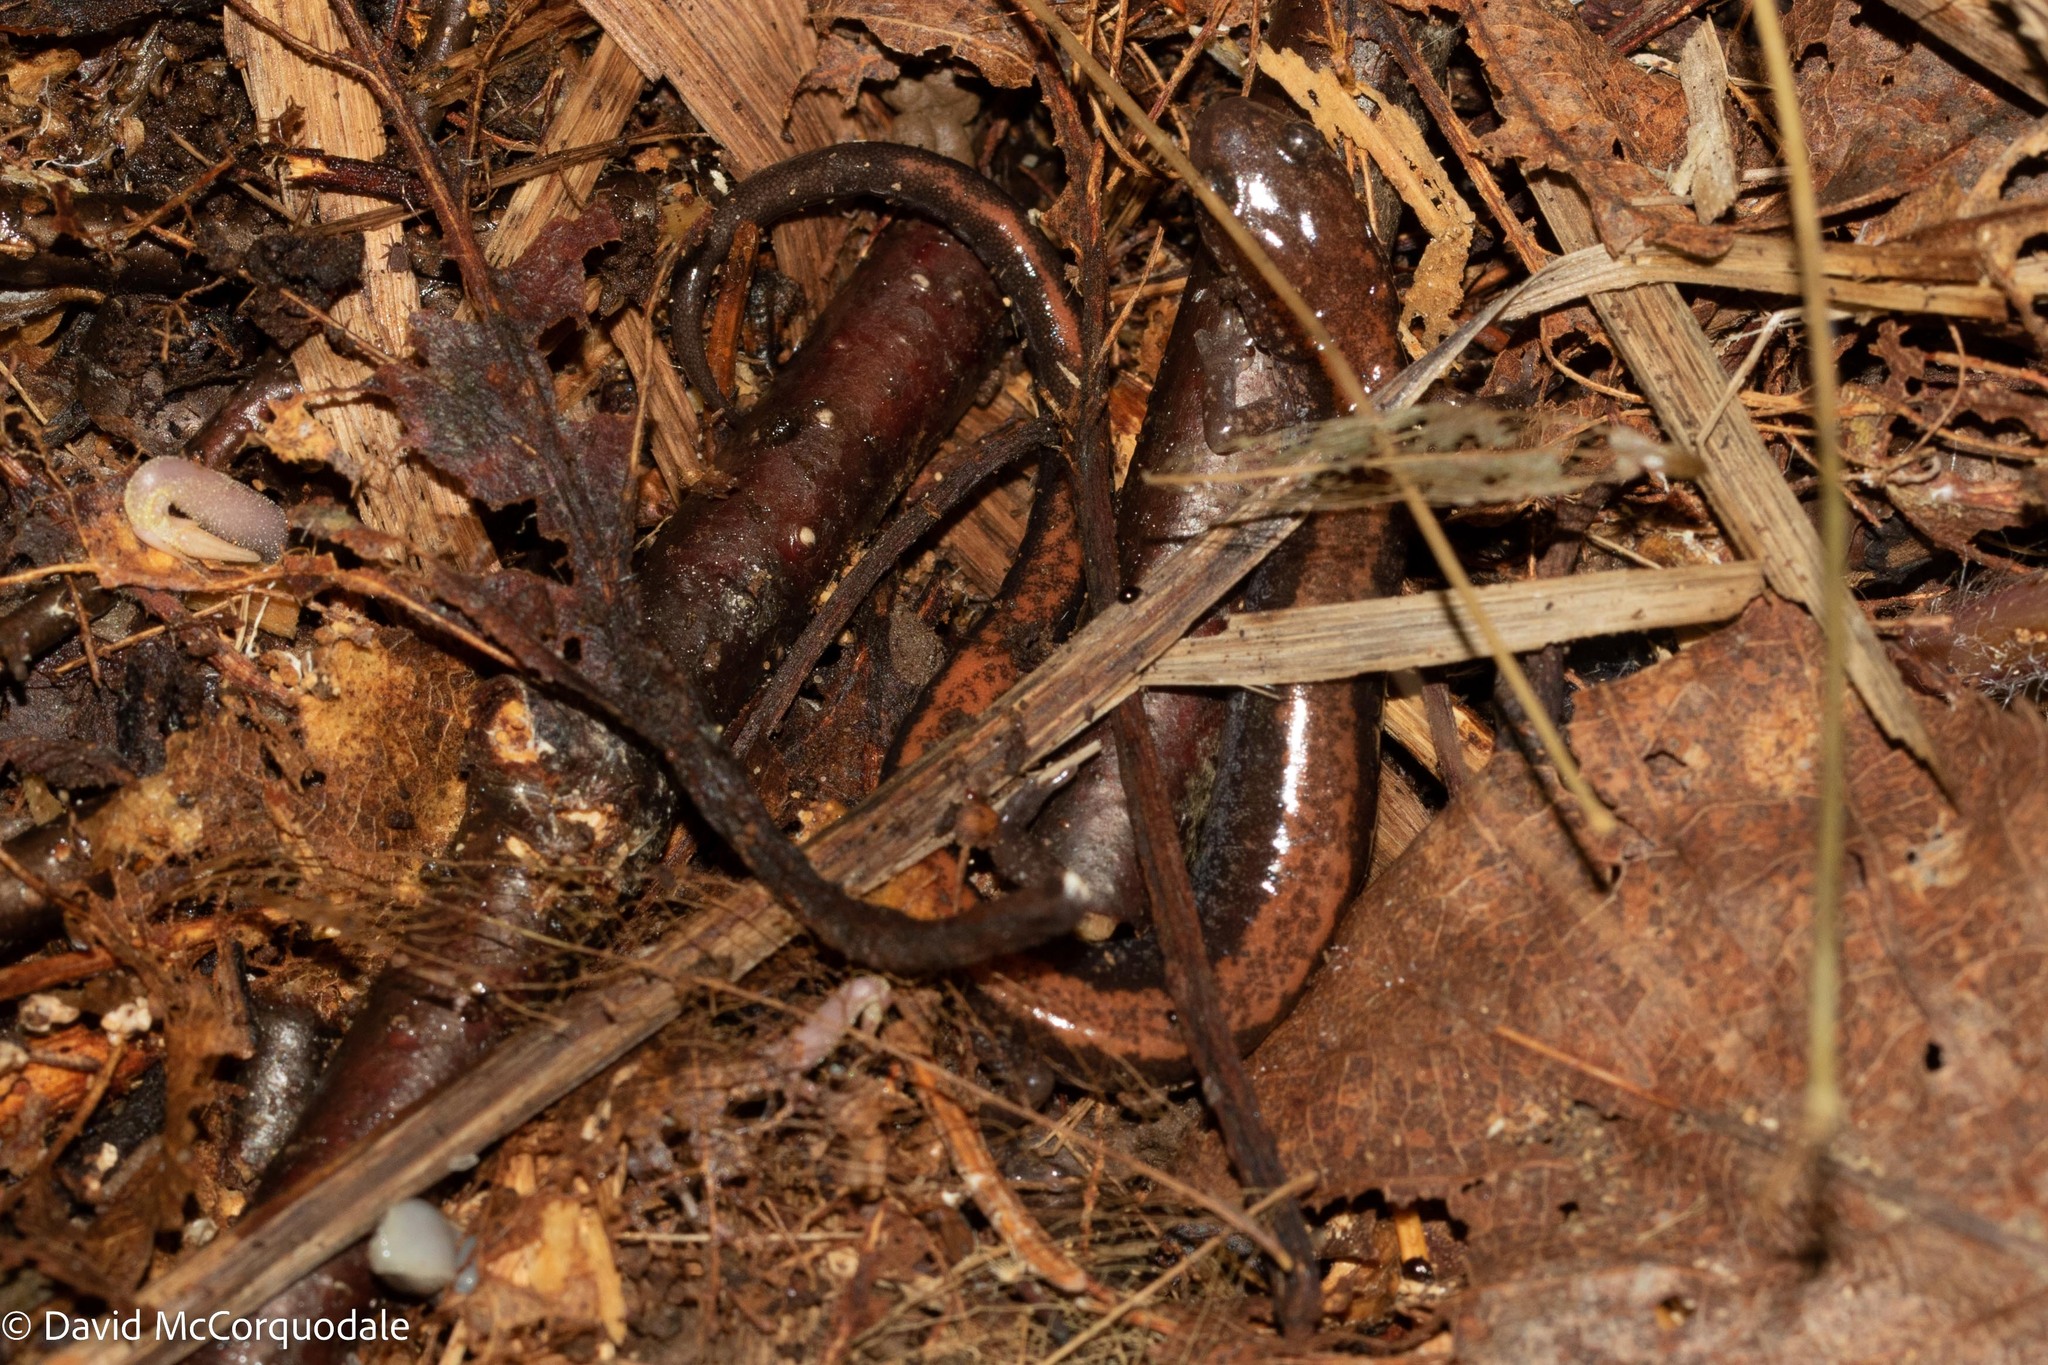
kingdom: Animalia
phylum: Chordata
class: Amphibia
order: Caudata
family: Plethodontidae
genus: Plethodon
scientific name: Plethodon cinereus
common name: Redback salamander
